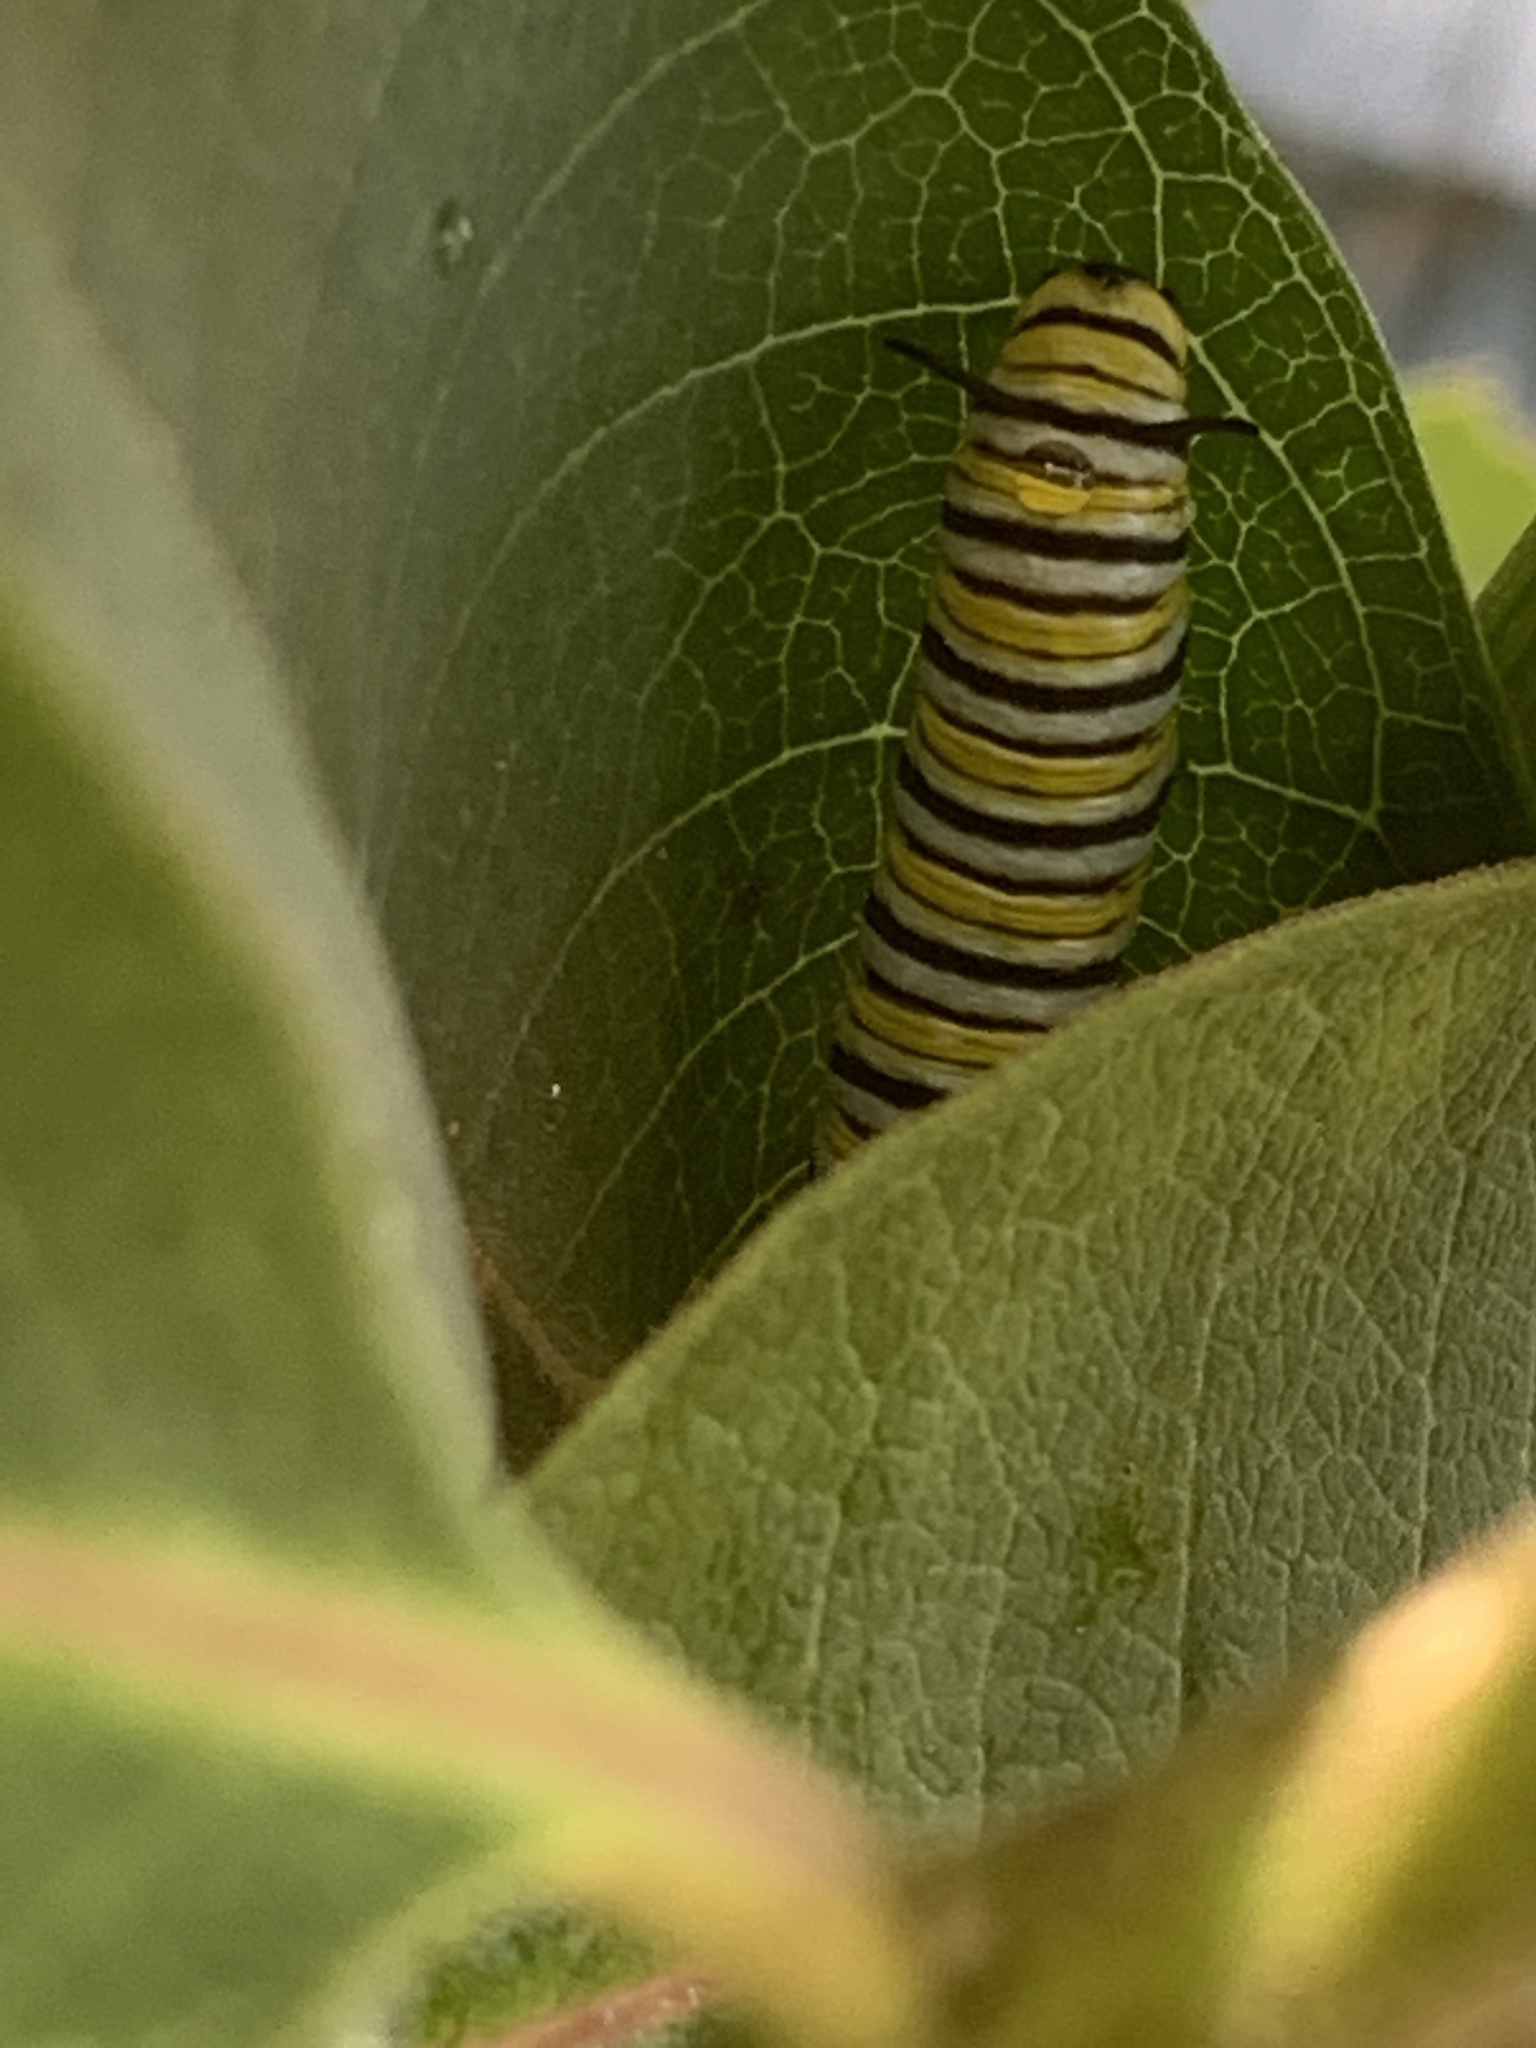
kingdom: Animalia
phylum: Arthropoda
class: Insecta
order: Lepidoptera
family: Nymphalidae
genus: Danaus
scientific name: Danaus plexippus
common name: Monarch
